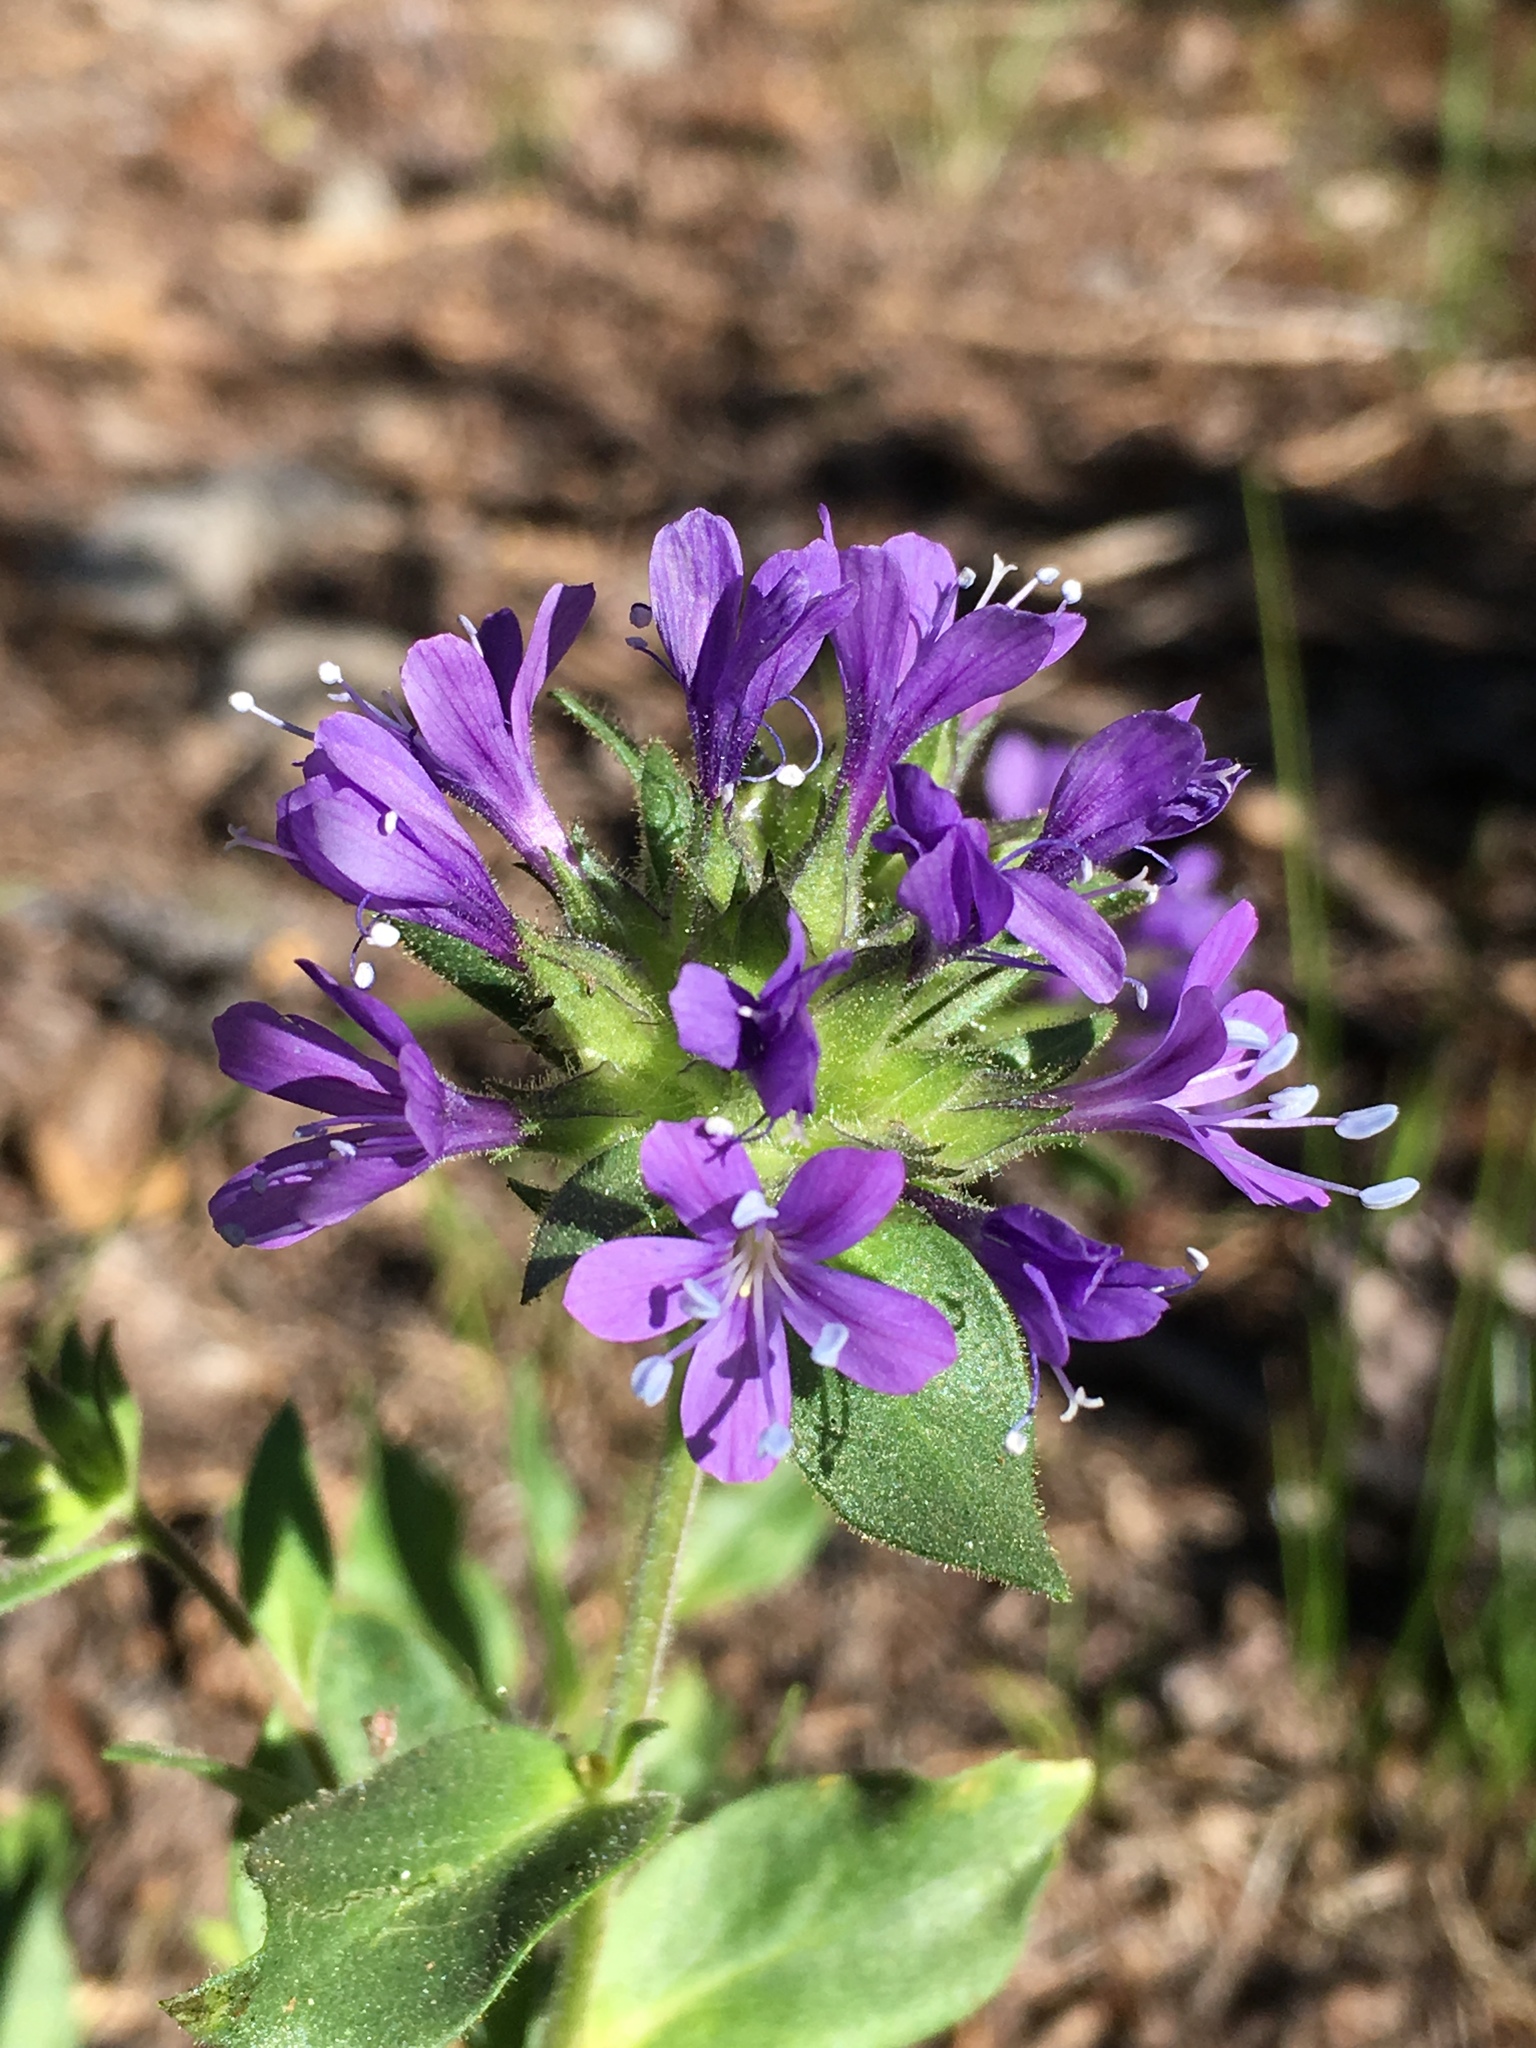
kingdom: Plantae
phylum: Tracheophyta
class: Magnoliopsida
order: Ericales
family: Polemoniaceae
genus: Collomia
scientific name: Collomia mazama
